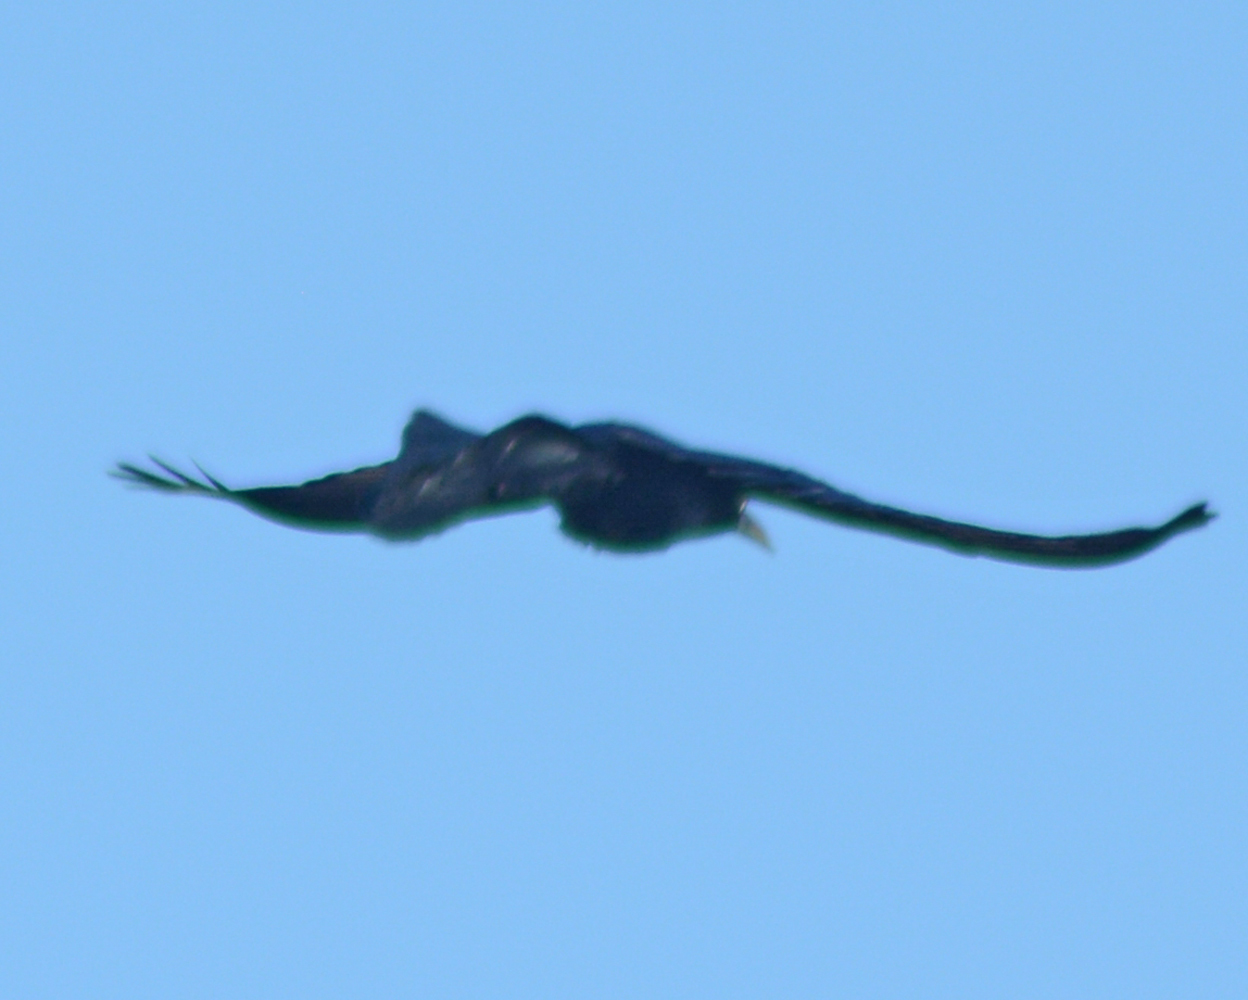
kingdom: Animalia
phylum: Chordata
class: Aves
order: Passeriformes
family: Icteridae
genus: Quiscalus
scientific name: Quiscalus mexicanus
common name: Great-tailed grackle
